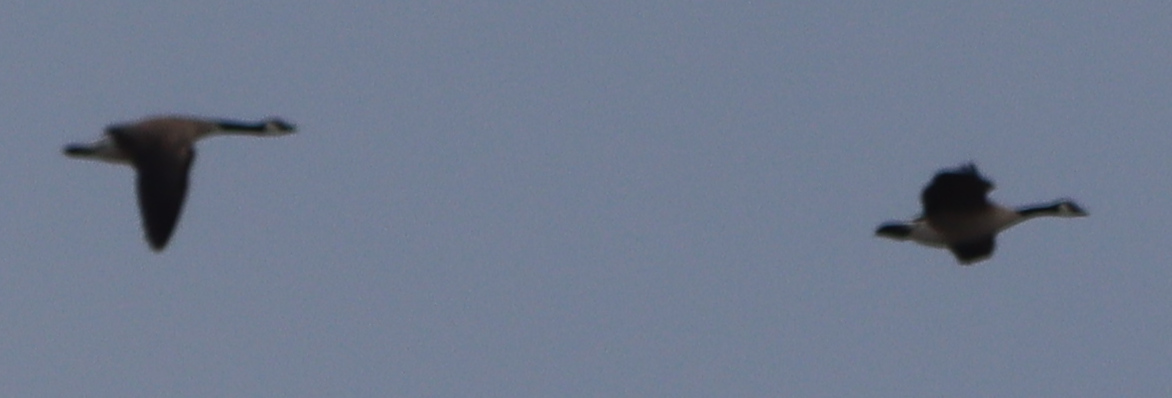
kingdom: Animalia
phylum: Chordata
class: Aves
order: Anseriformes
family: Anatidae
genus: Branta
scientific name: Branta canadensis
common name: Canada goose
